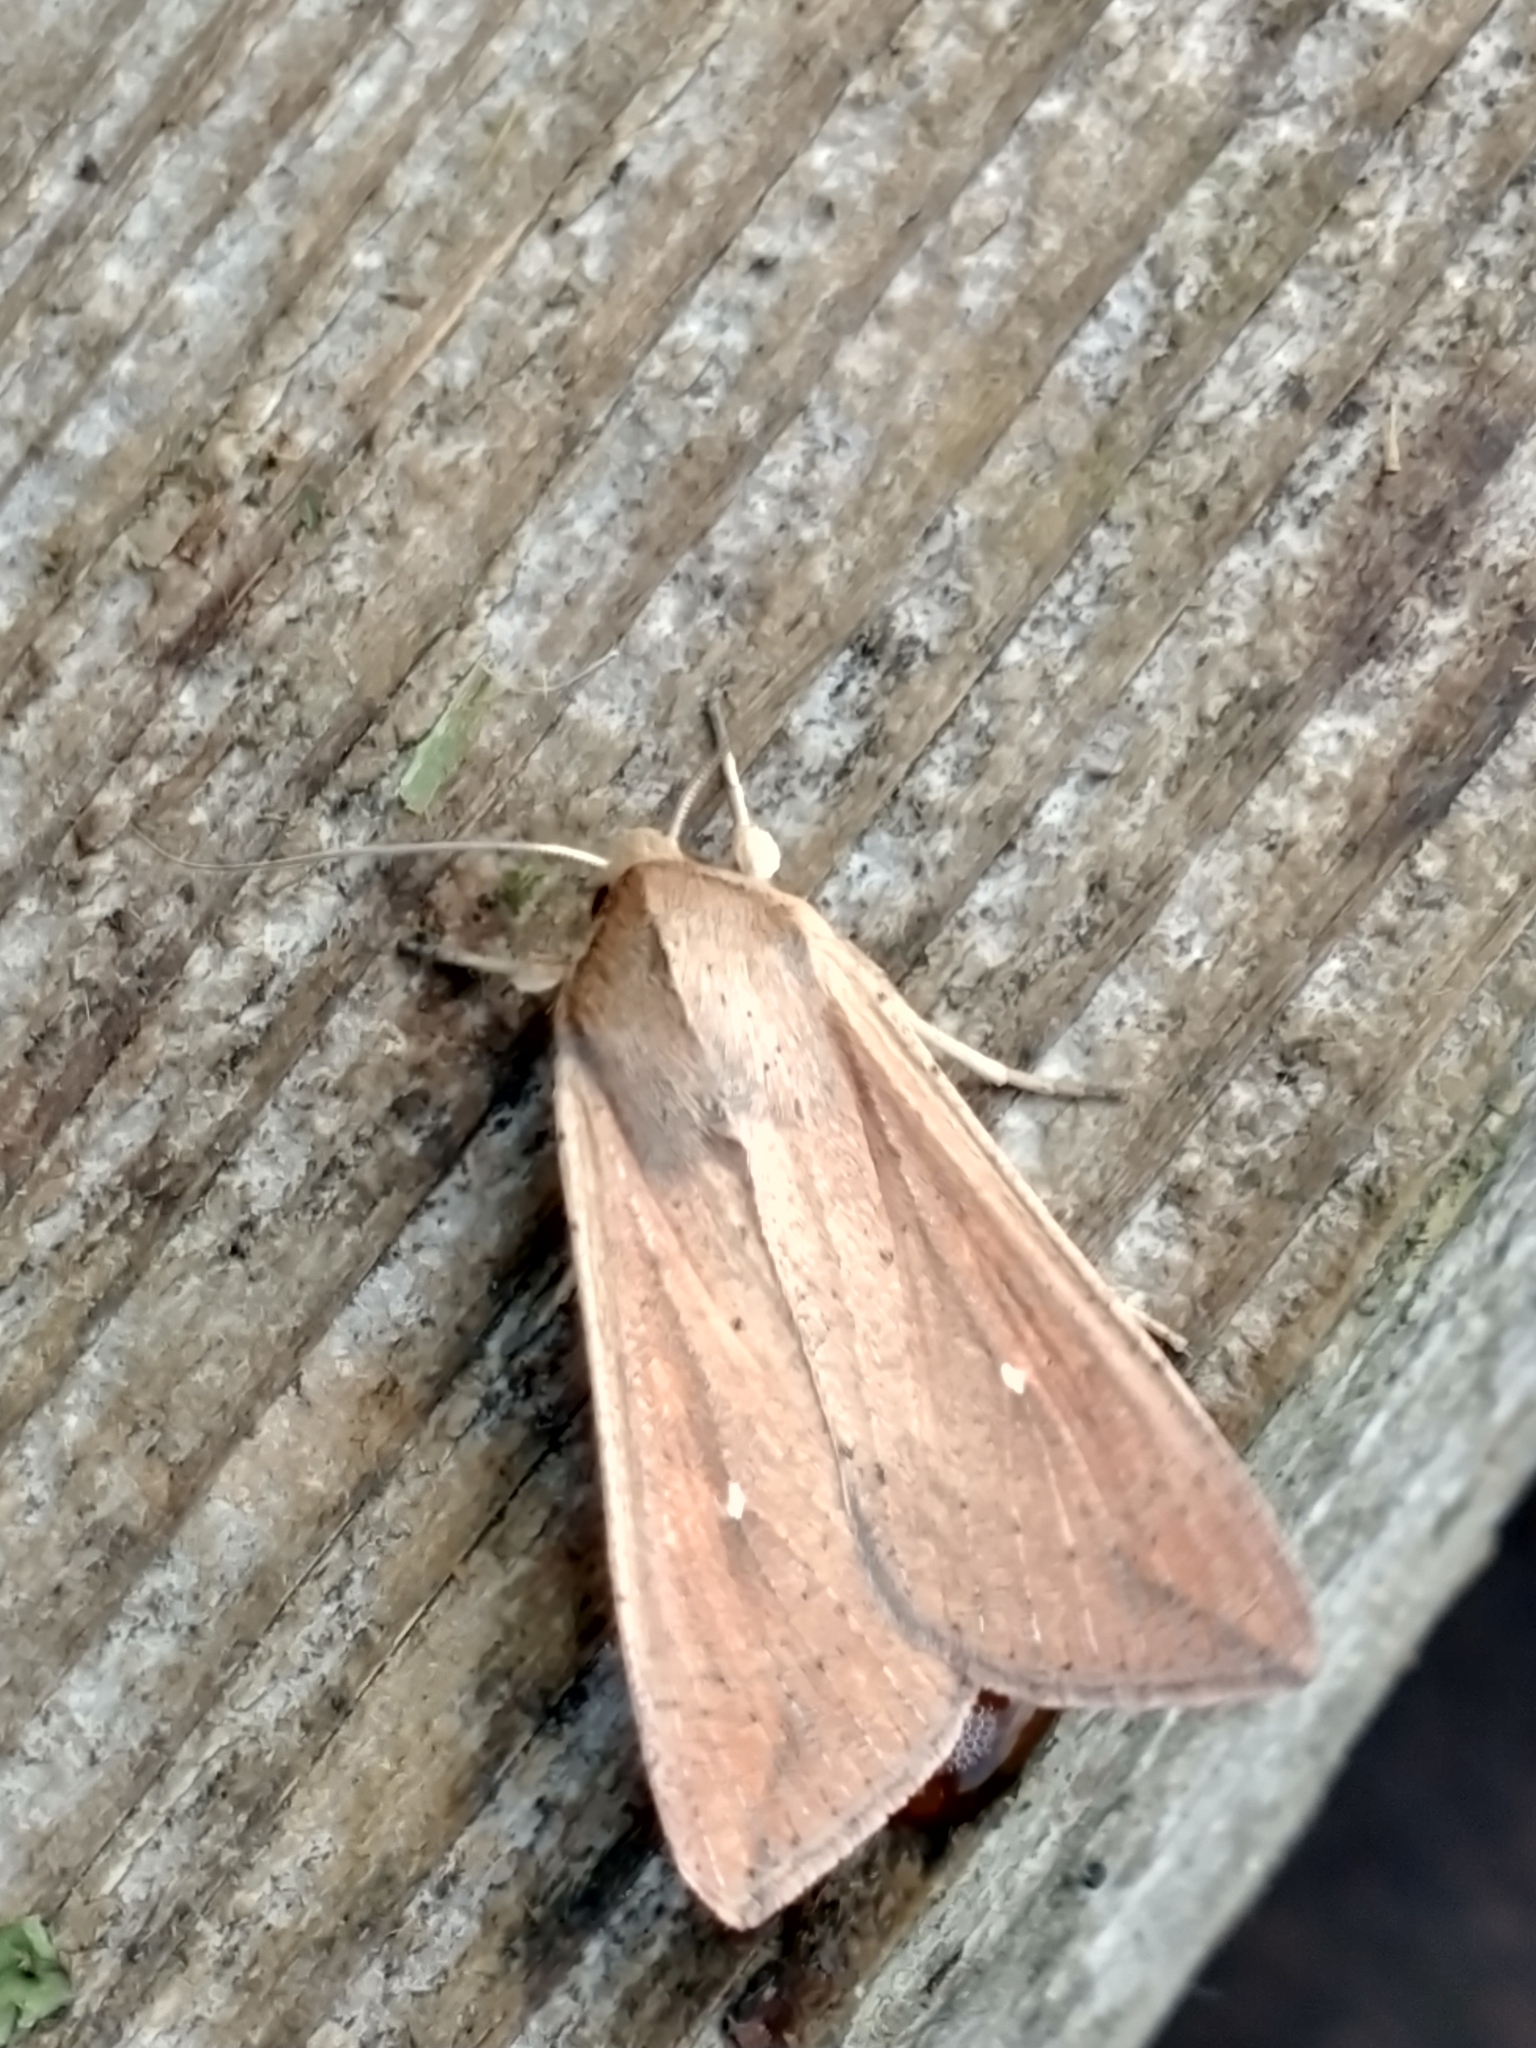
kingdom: Animalia
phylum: Arthropoda
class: Insecta
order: Lepidoptera
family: Noctuidae
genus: Mythimna
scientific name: Mythimna unipuncta
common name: White-speck
